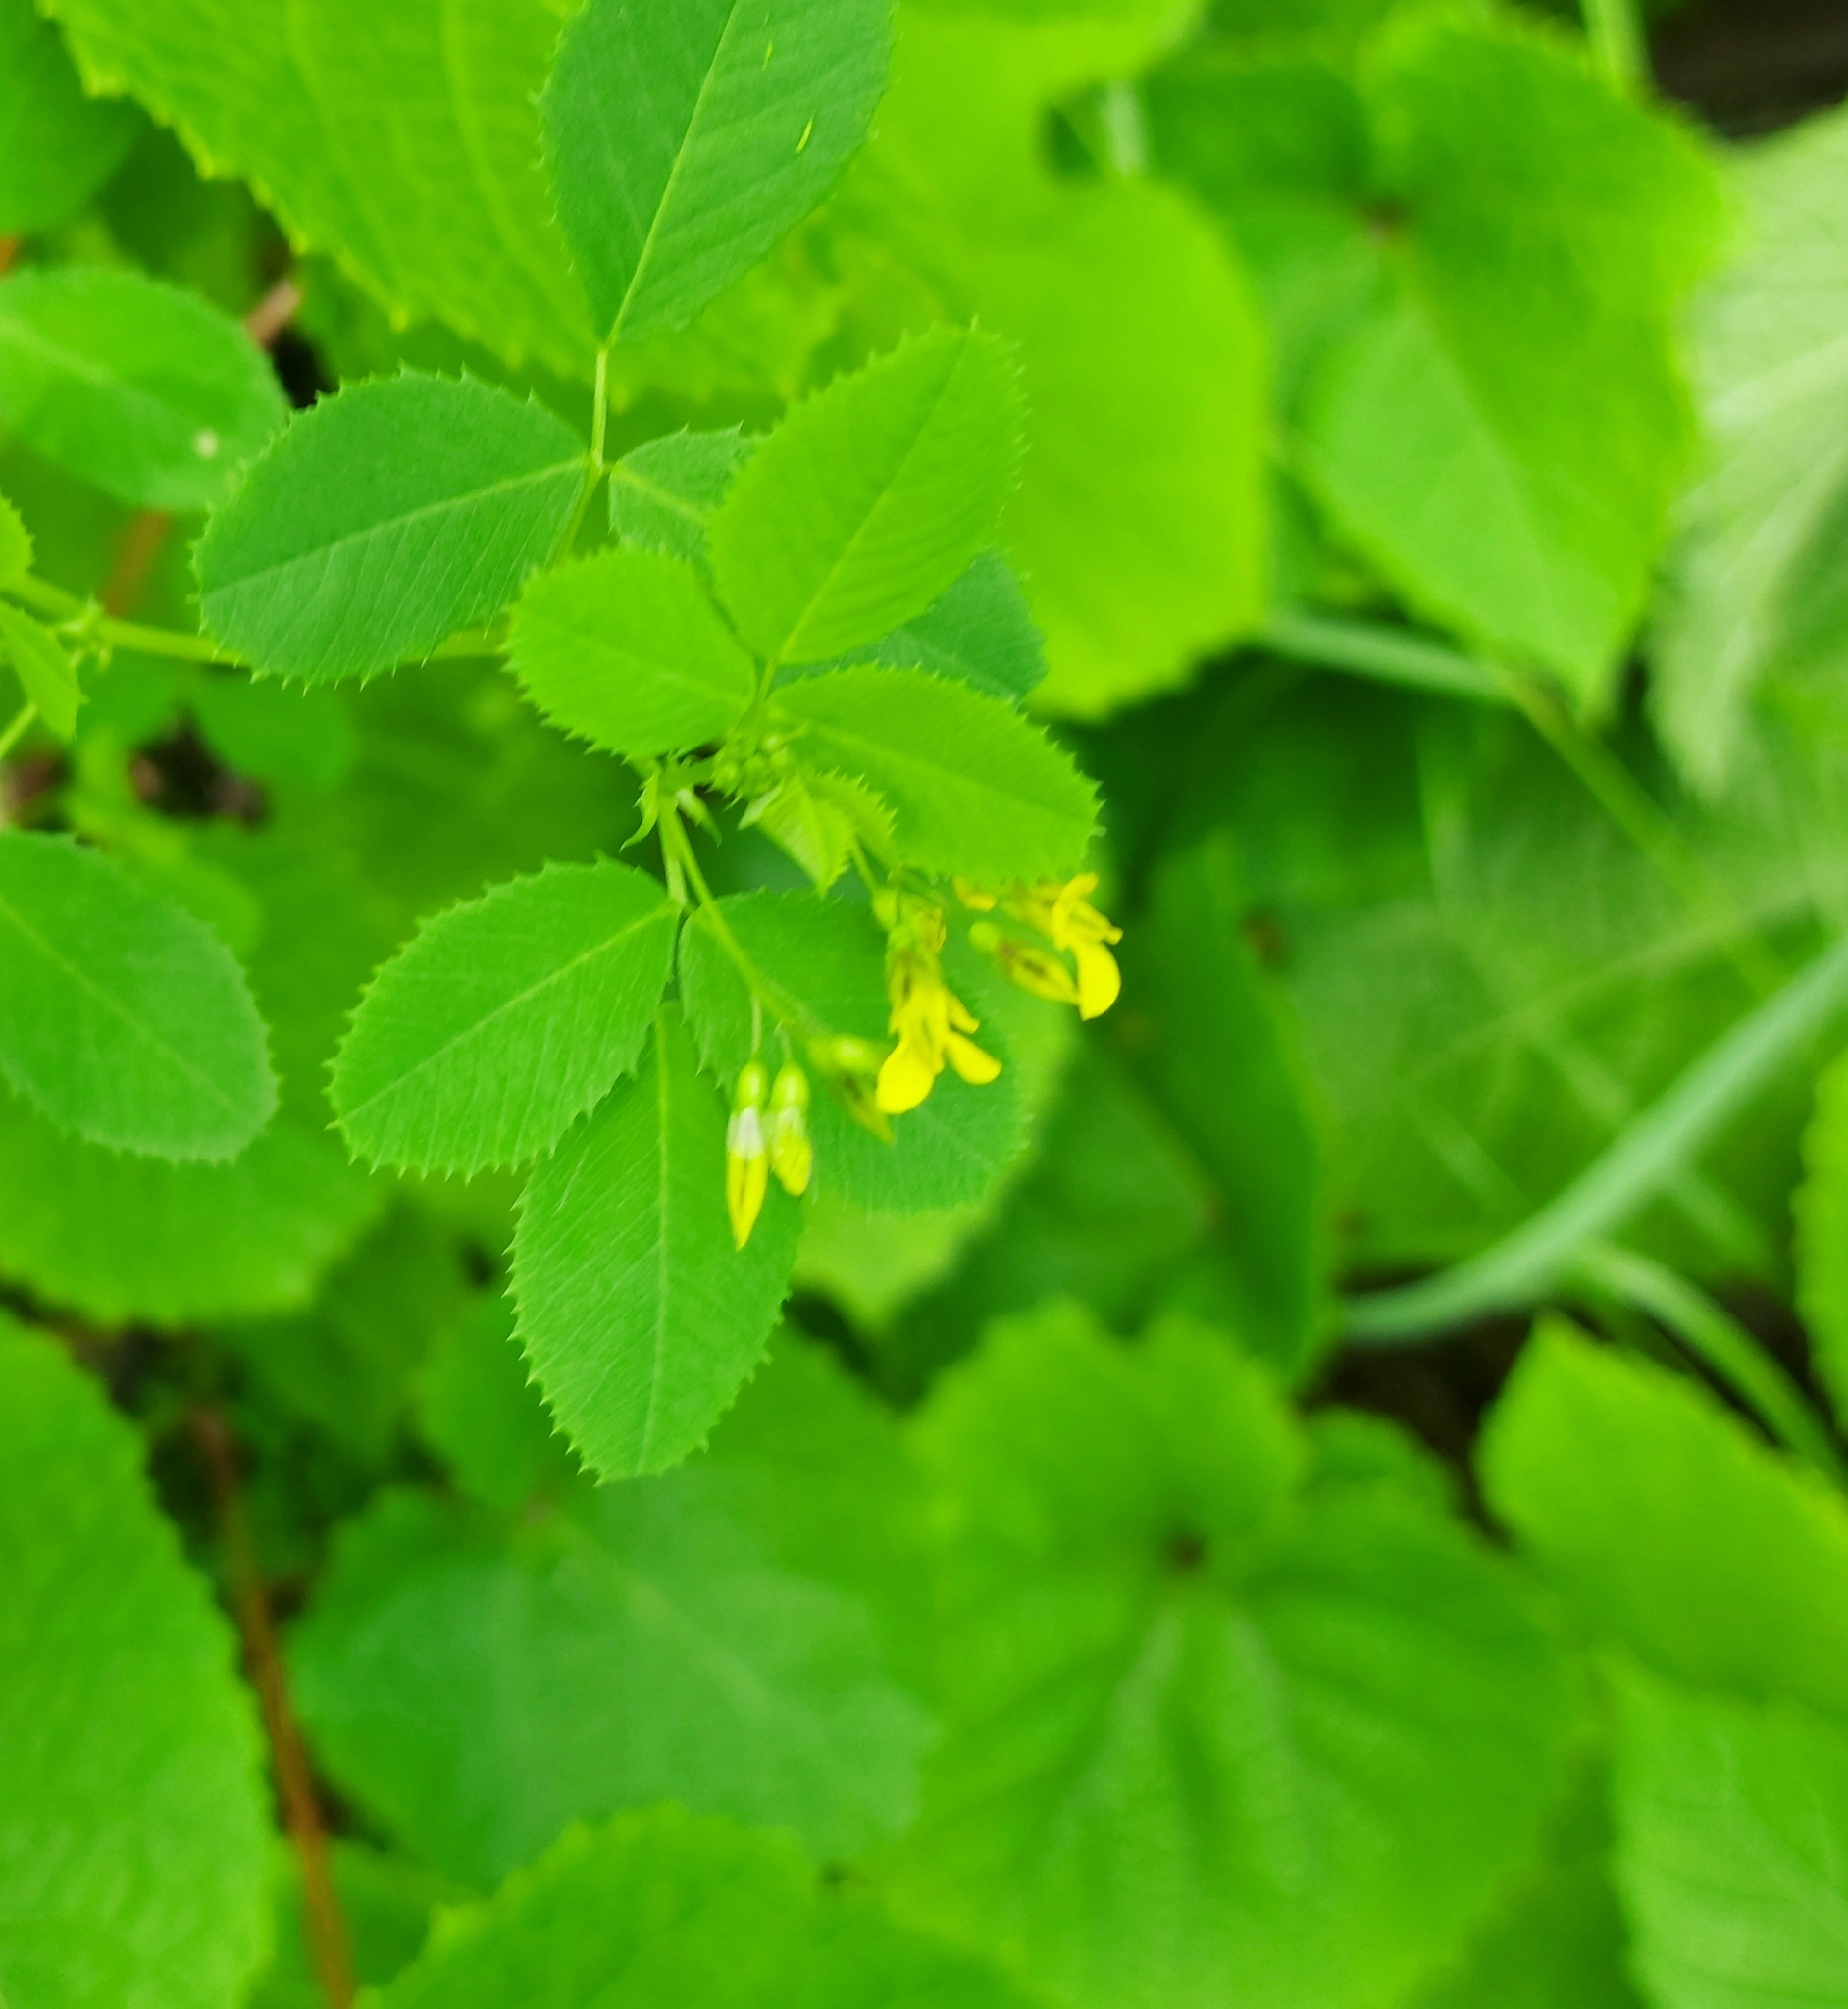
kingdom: Plantae
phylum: Tracheophyta
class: Magnoliopsida
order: Fabales
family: Fabaceae
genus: Medicago
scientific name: Medicago platycarpos
